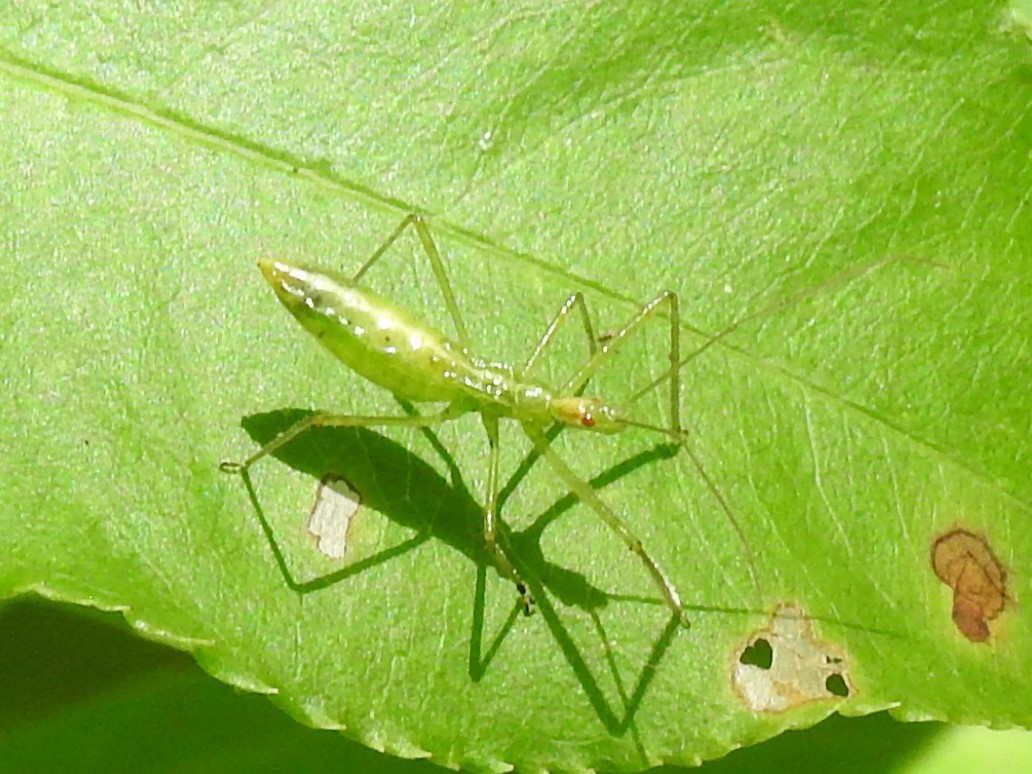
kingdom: Animalia
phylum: Arthropoda
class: Insecta
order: Hemiptera
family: Reduviidae
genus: Zelus
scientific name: Zelus luridus
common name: Pale green assassin bug
